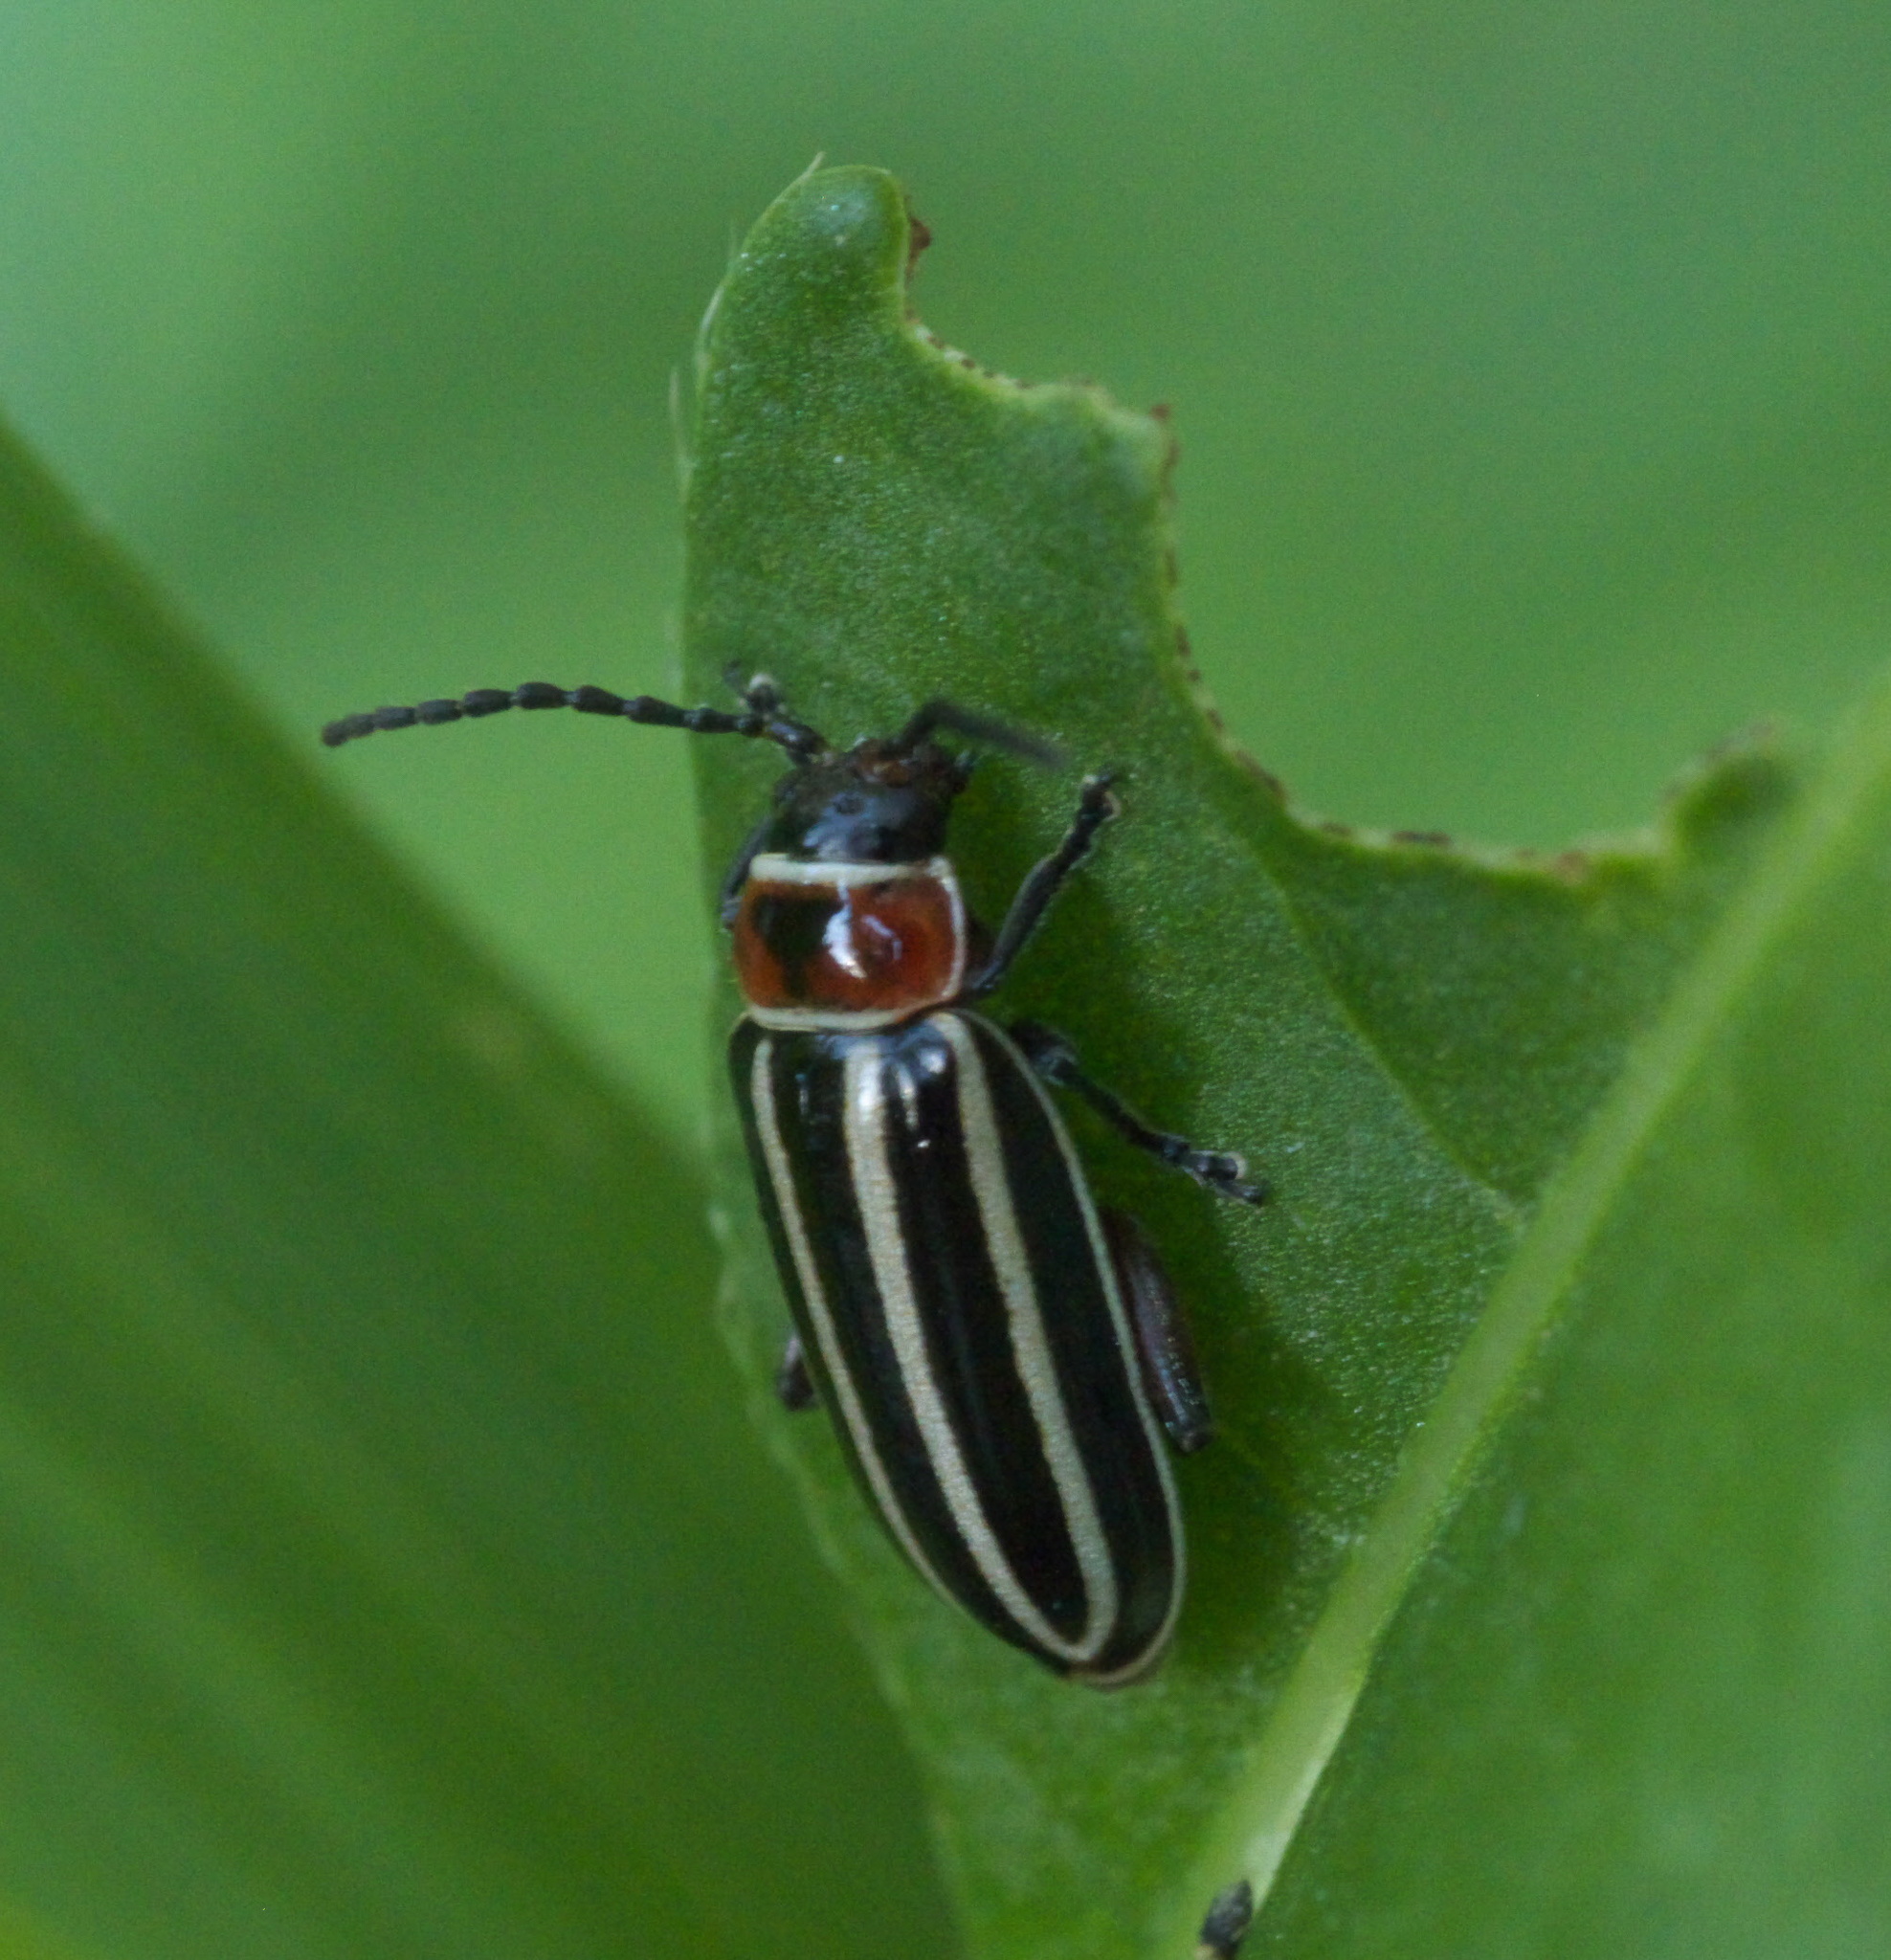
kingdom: Animalia
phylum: Arthropoda
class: Insecta
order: Coleoptera
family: Chrysomelidae
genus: Disonycha
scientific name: Disonycha pensylvanica
